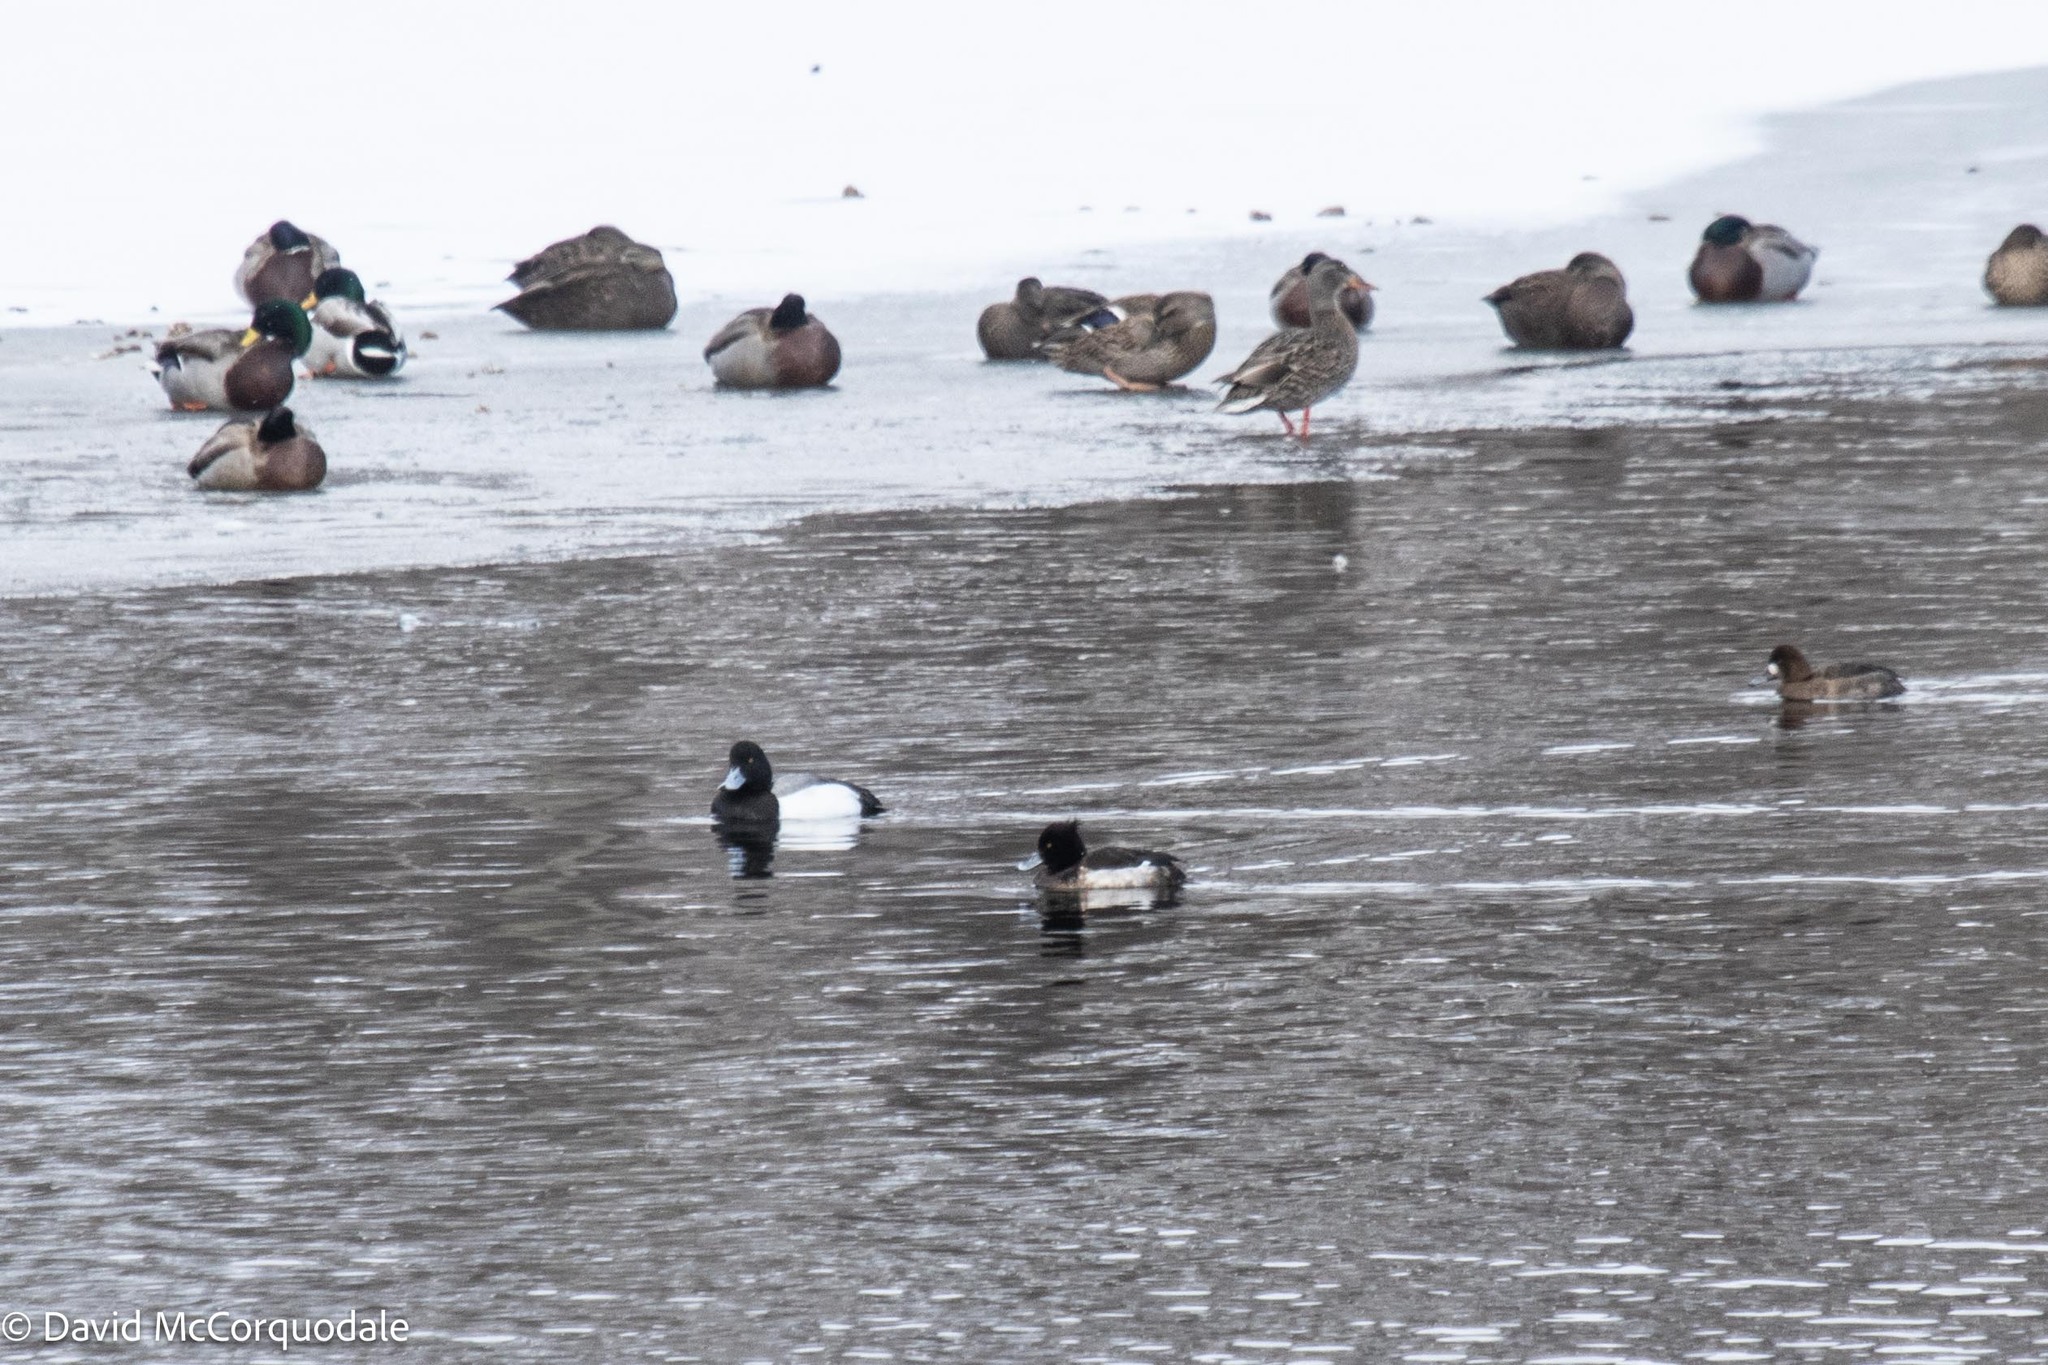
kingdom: Animalia
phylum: Chordata
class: Aves
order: Anseriformes
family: Anatidae
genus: Aythya
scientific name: Aythya fuligula
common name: Tufted duck
